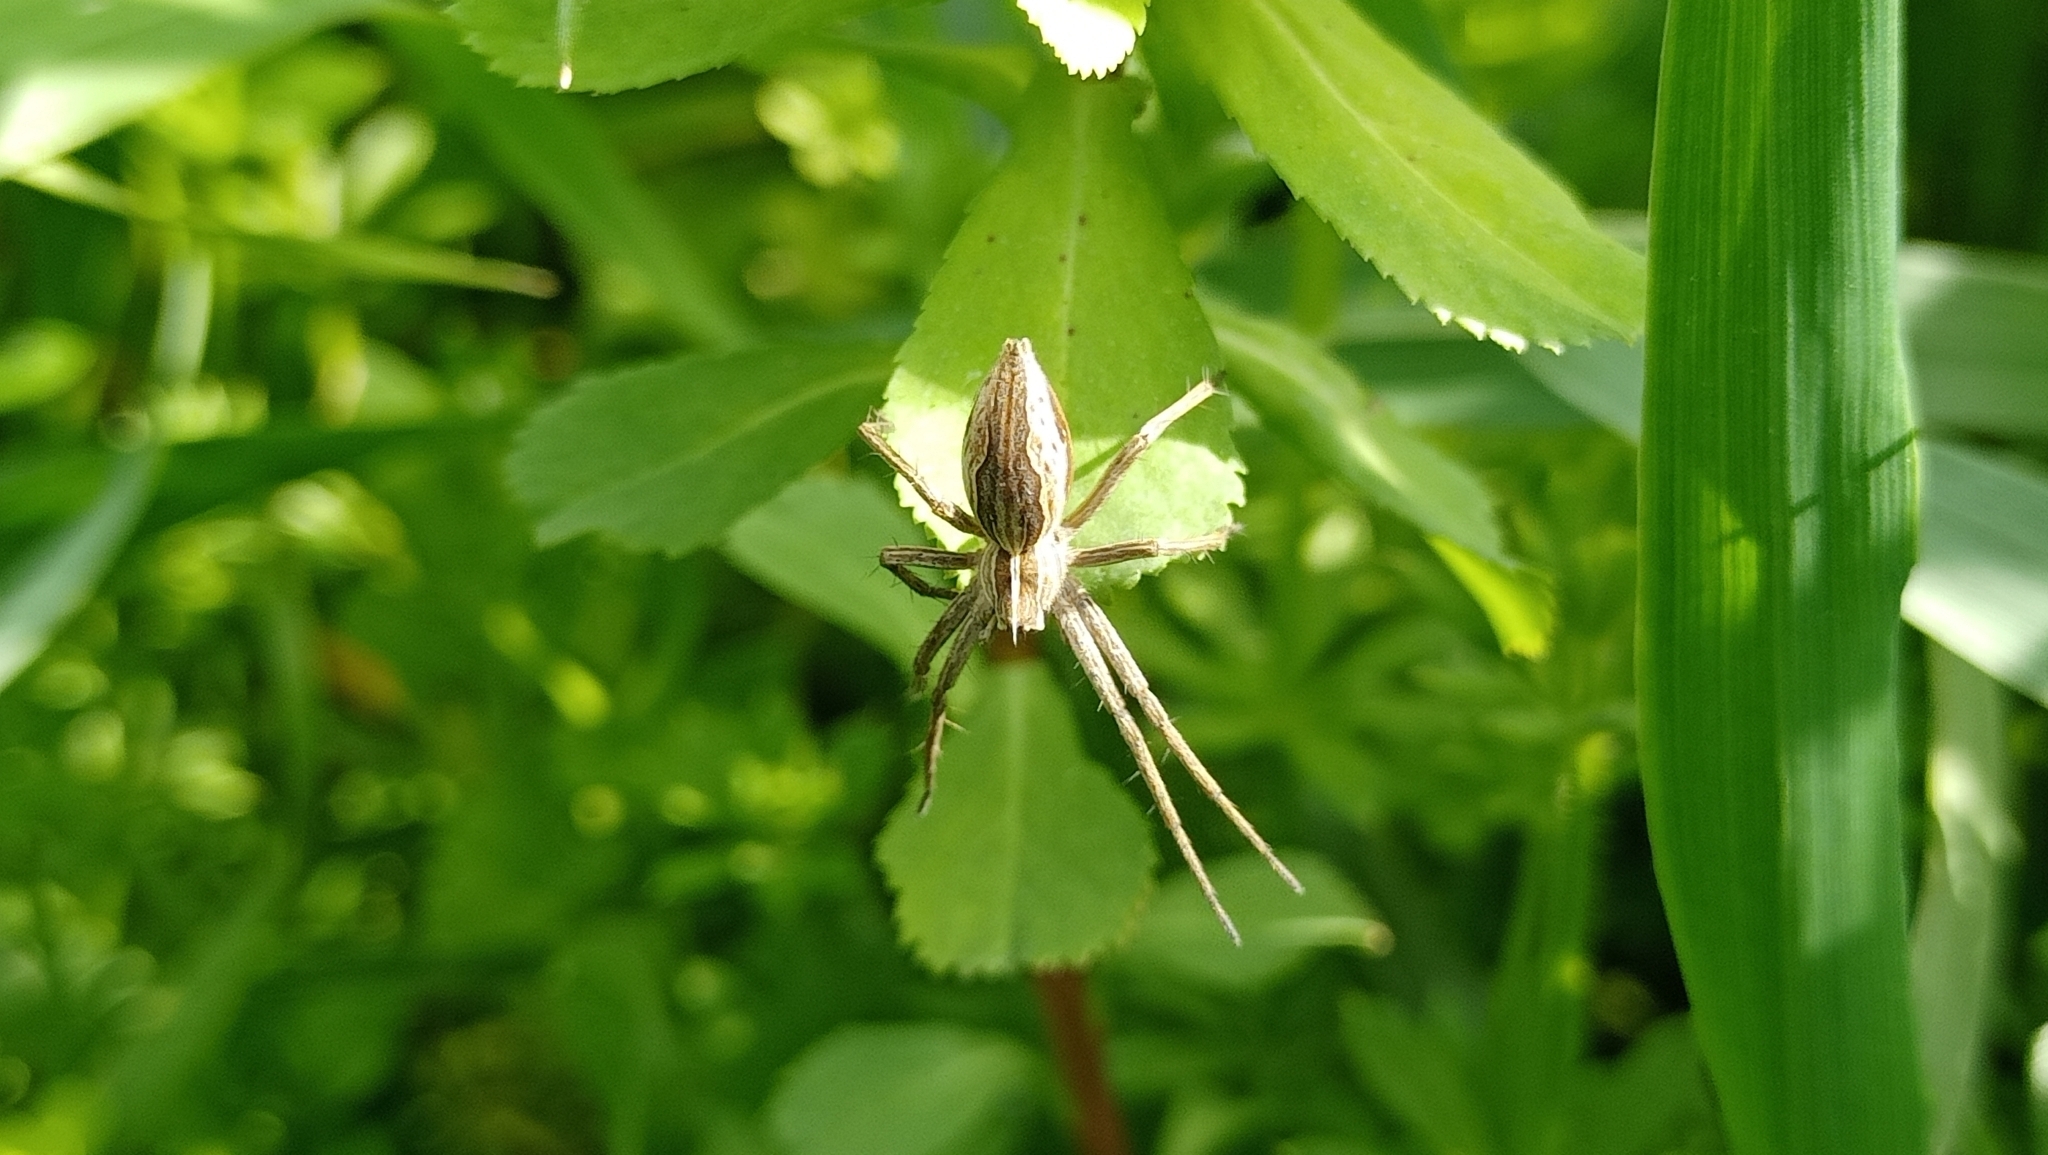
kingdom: Animalia
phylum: Arthropoda
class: Arachnida
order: Araneae
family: Pisauridae
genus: Pisaura
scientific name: Pisaura mirabilis
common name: Tent spider
